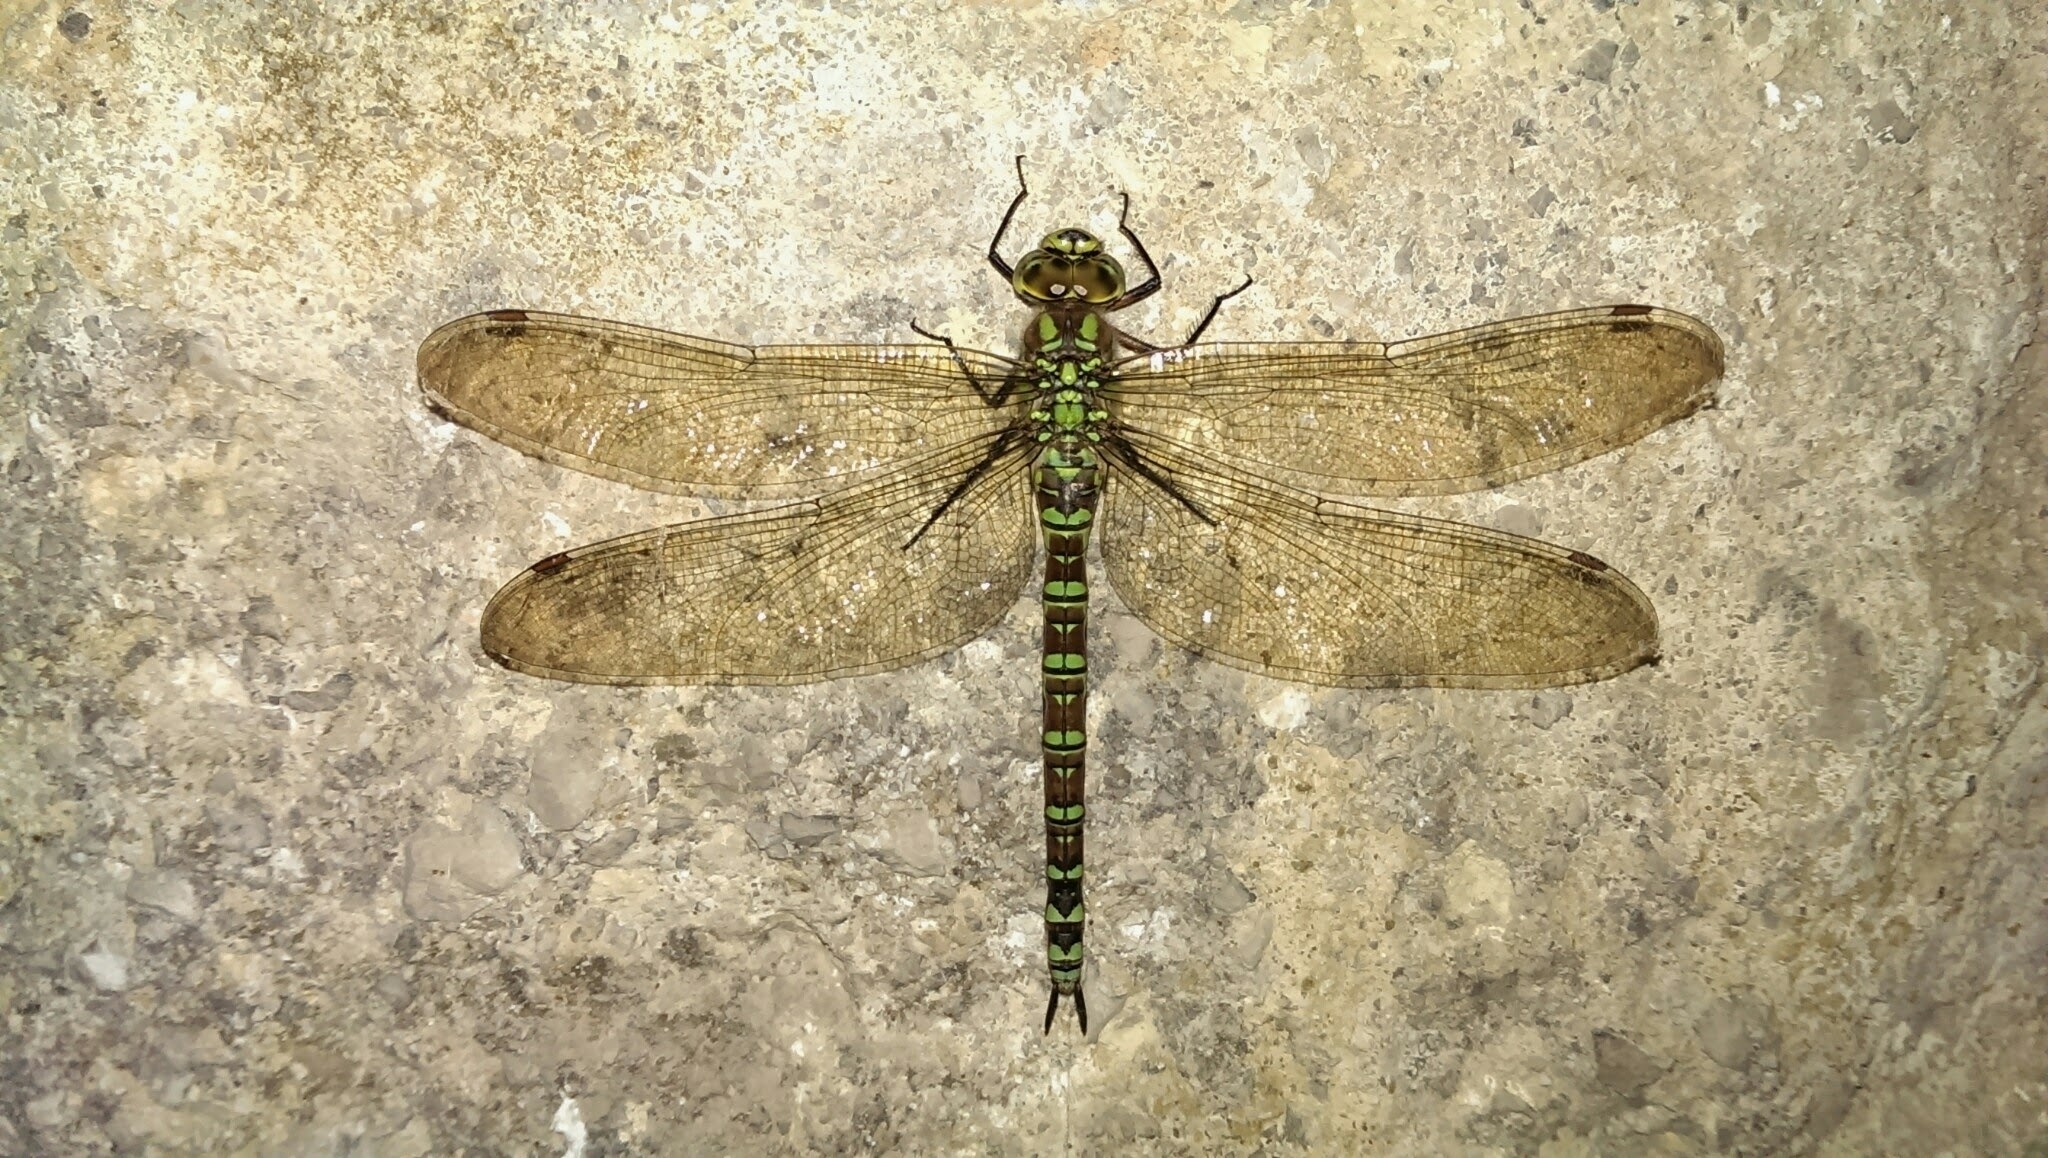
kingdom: Animalia
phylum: Arthropoda
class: Insecta
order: Odonata
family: Aeshnidae
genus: Aeshna
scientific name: Aeshna cyanea
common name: Southern hawker
